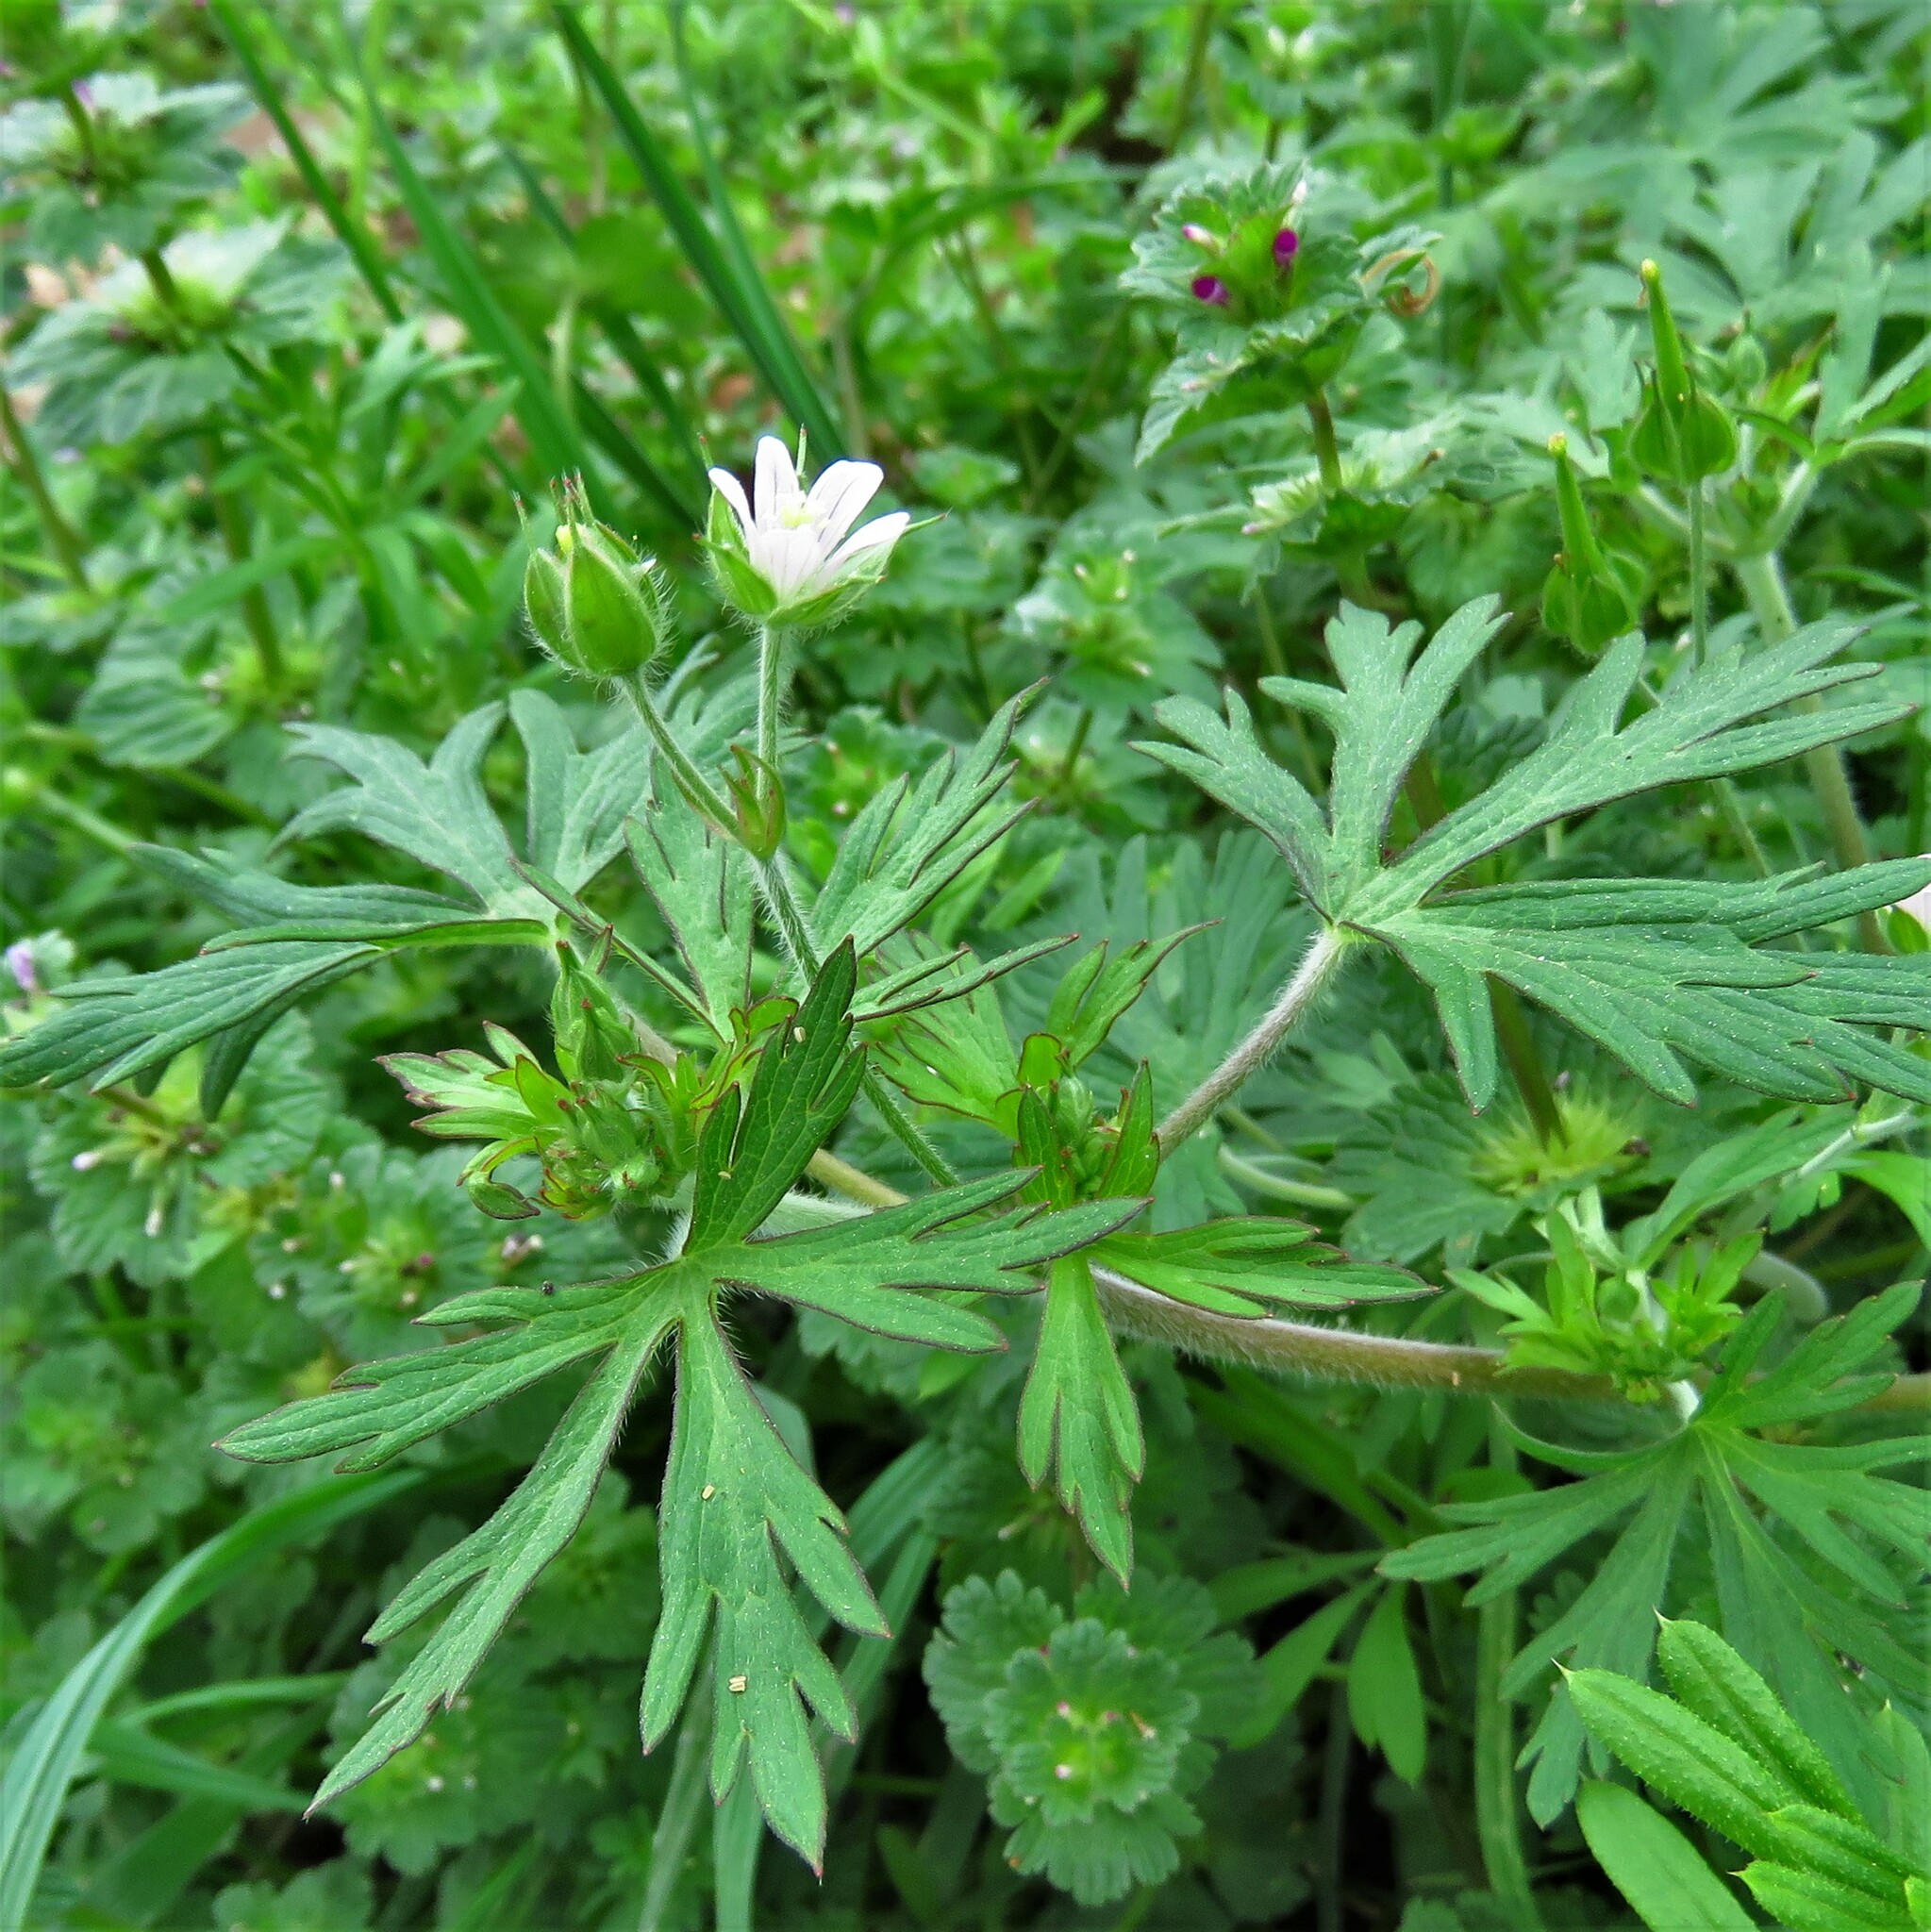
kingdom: Plantae
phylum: Tracheophyta
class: Magnoliopsida
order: Geraniales
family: Geraniaceae
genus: Geranium
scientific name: Geranium carolinianum
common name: Carolina crane's-bill
